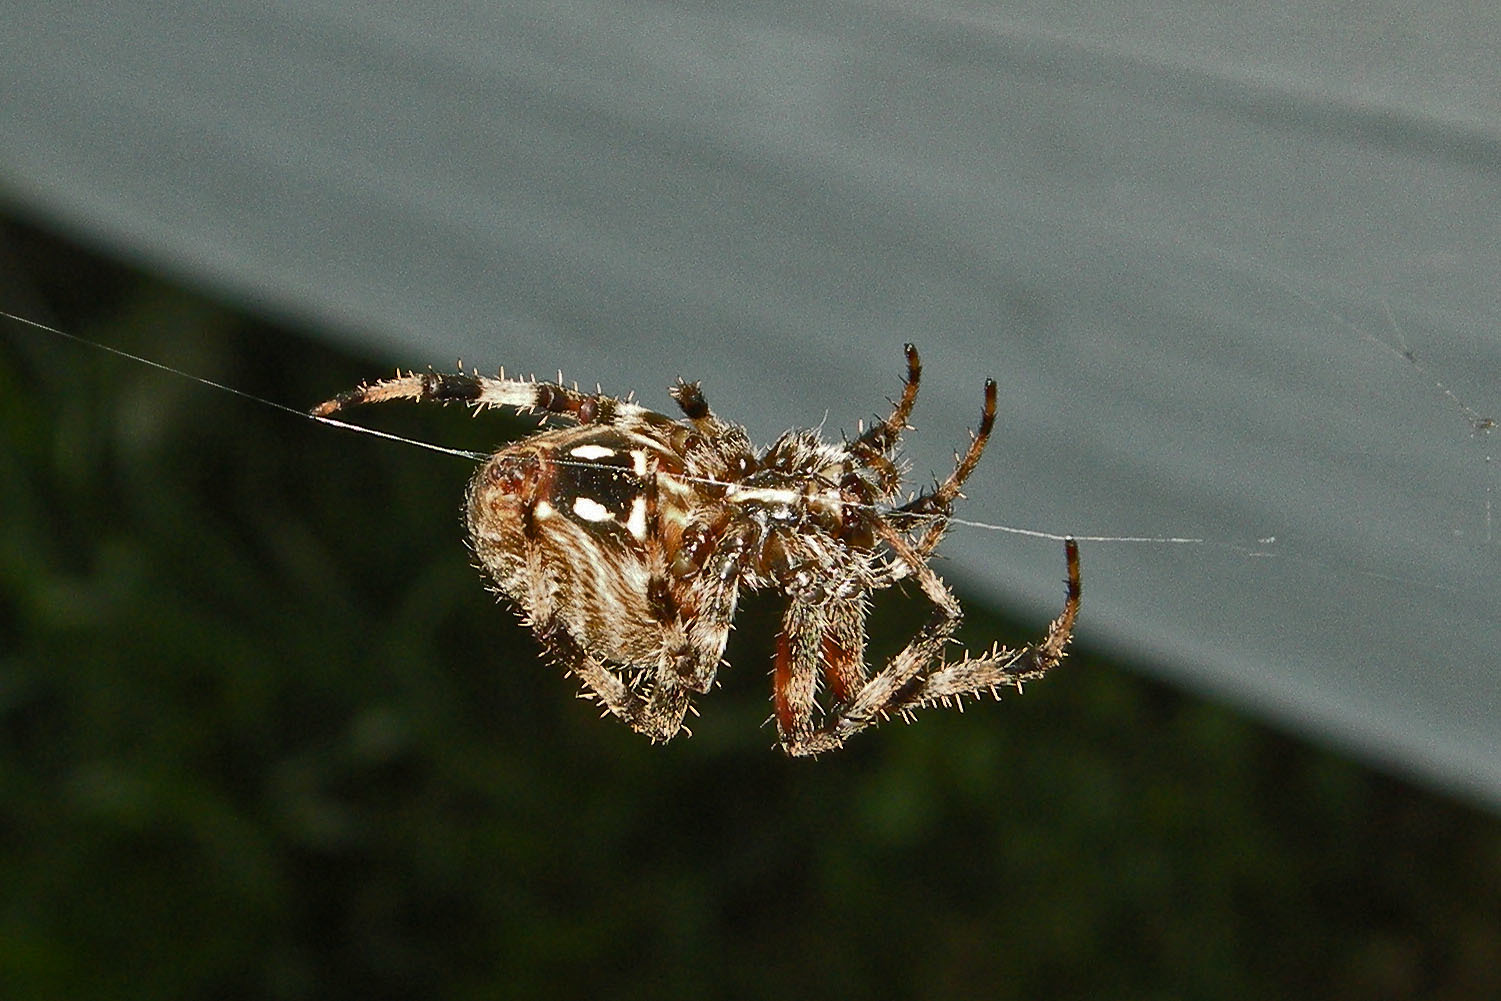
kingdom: Animalia
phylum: Arthropoda
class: Arachnida
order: Araneae
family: Araneidae
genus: Neoscona
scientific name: Neoscona crucifera
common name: Spotted orbweaver
